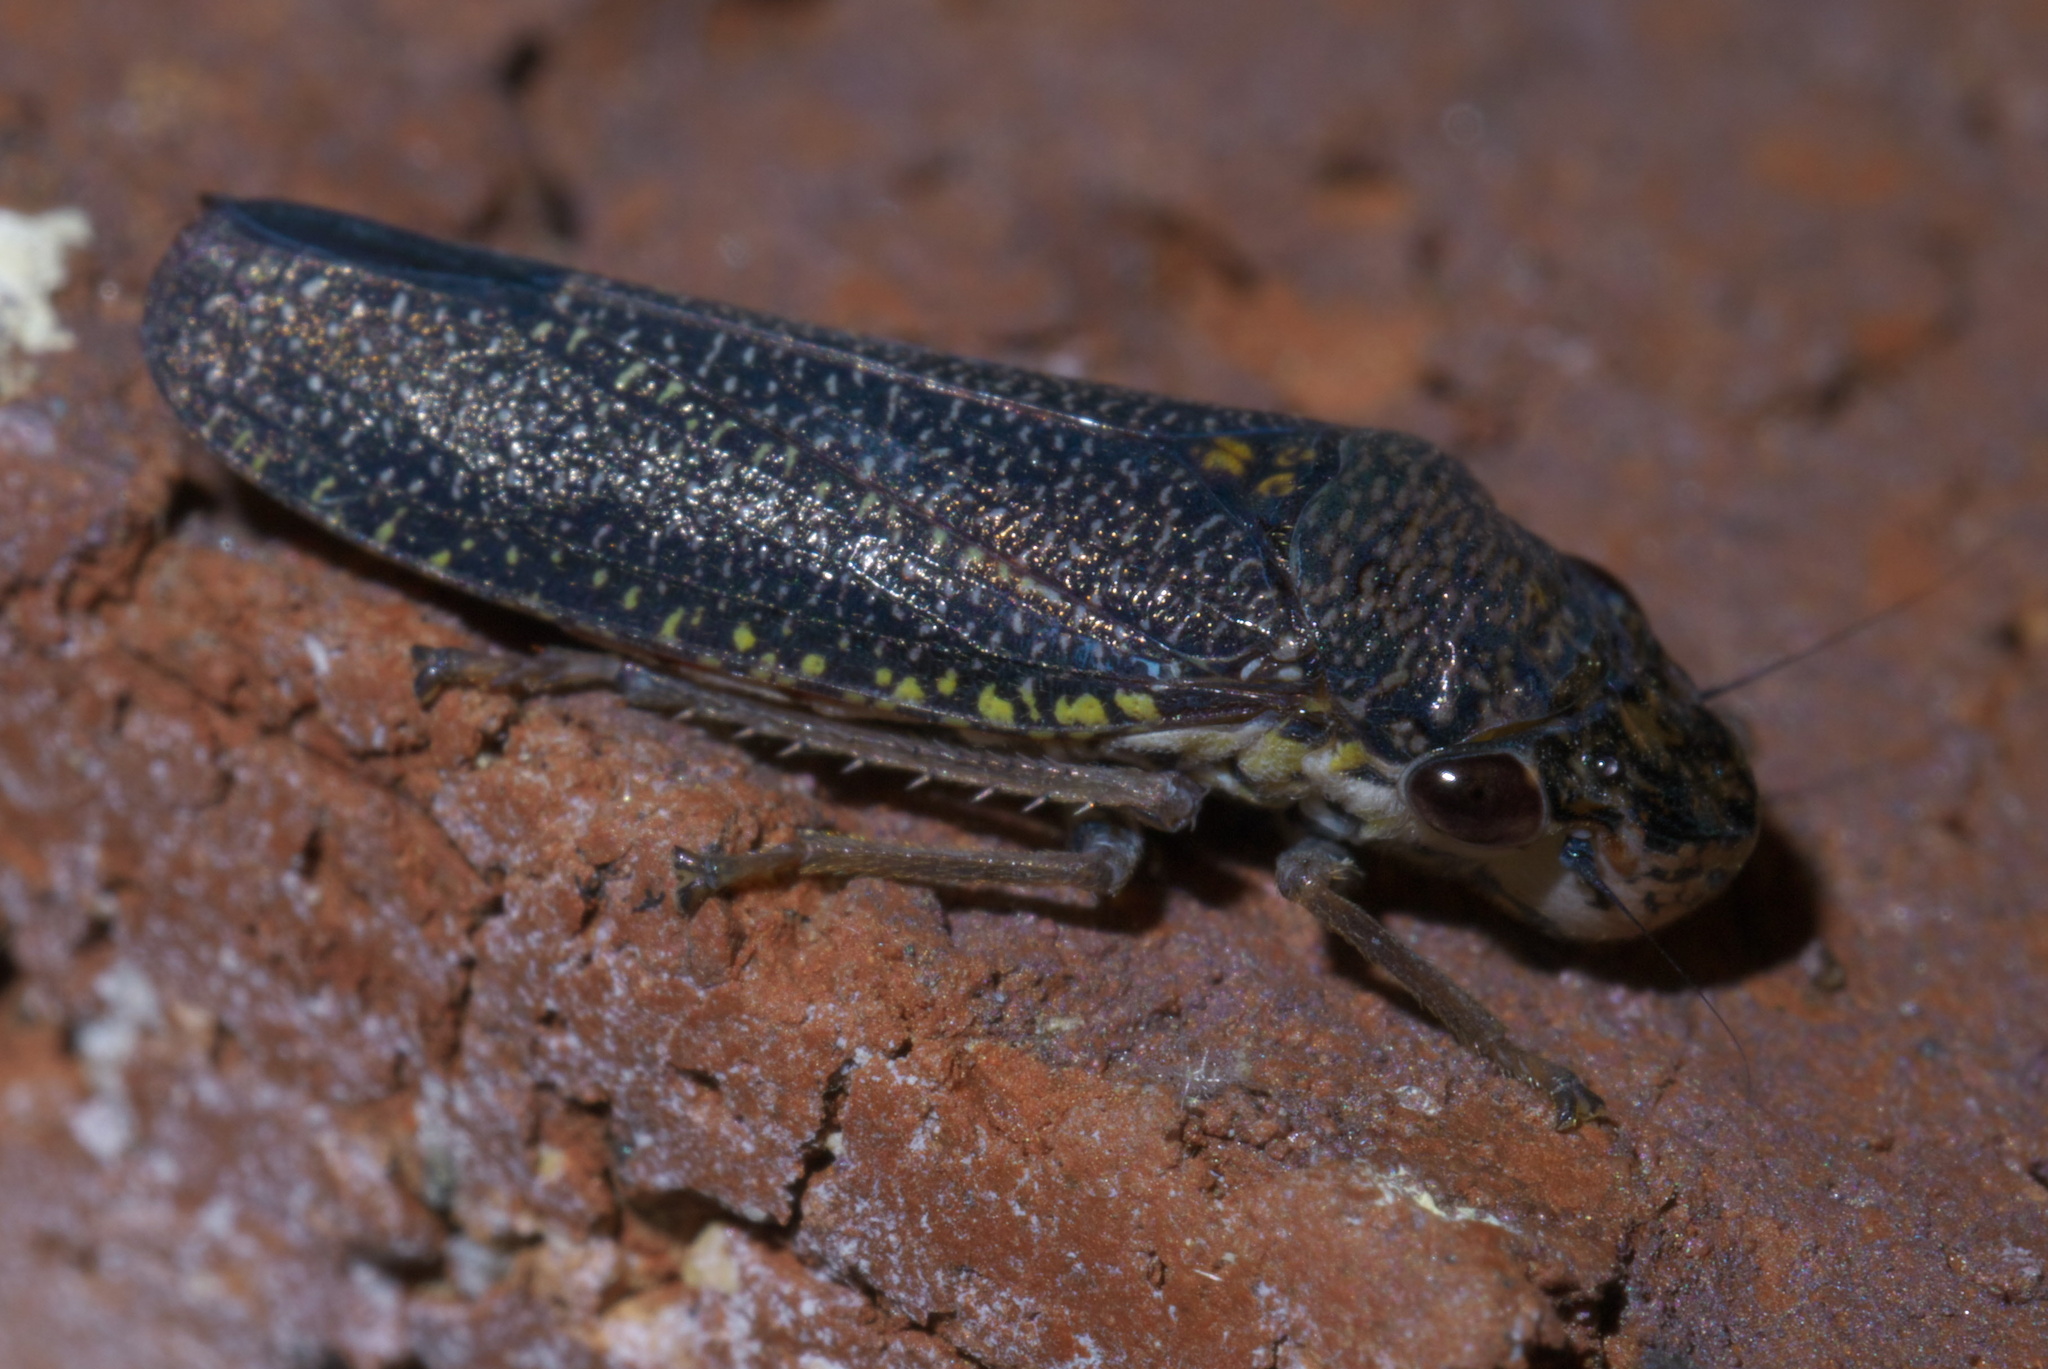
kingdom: Animalia
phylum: Arthropoda
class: Insecta
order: Hemiptera
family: Cicadellidae
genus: Paraulacizes
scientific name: Paraulacizes irrorata
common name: Speckled sharpshooter
